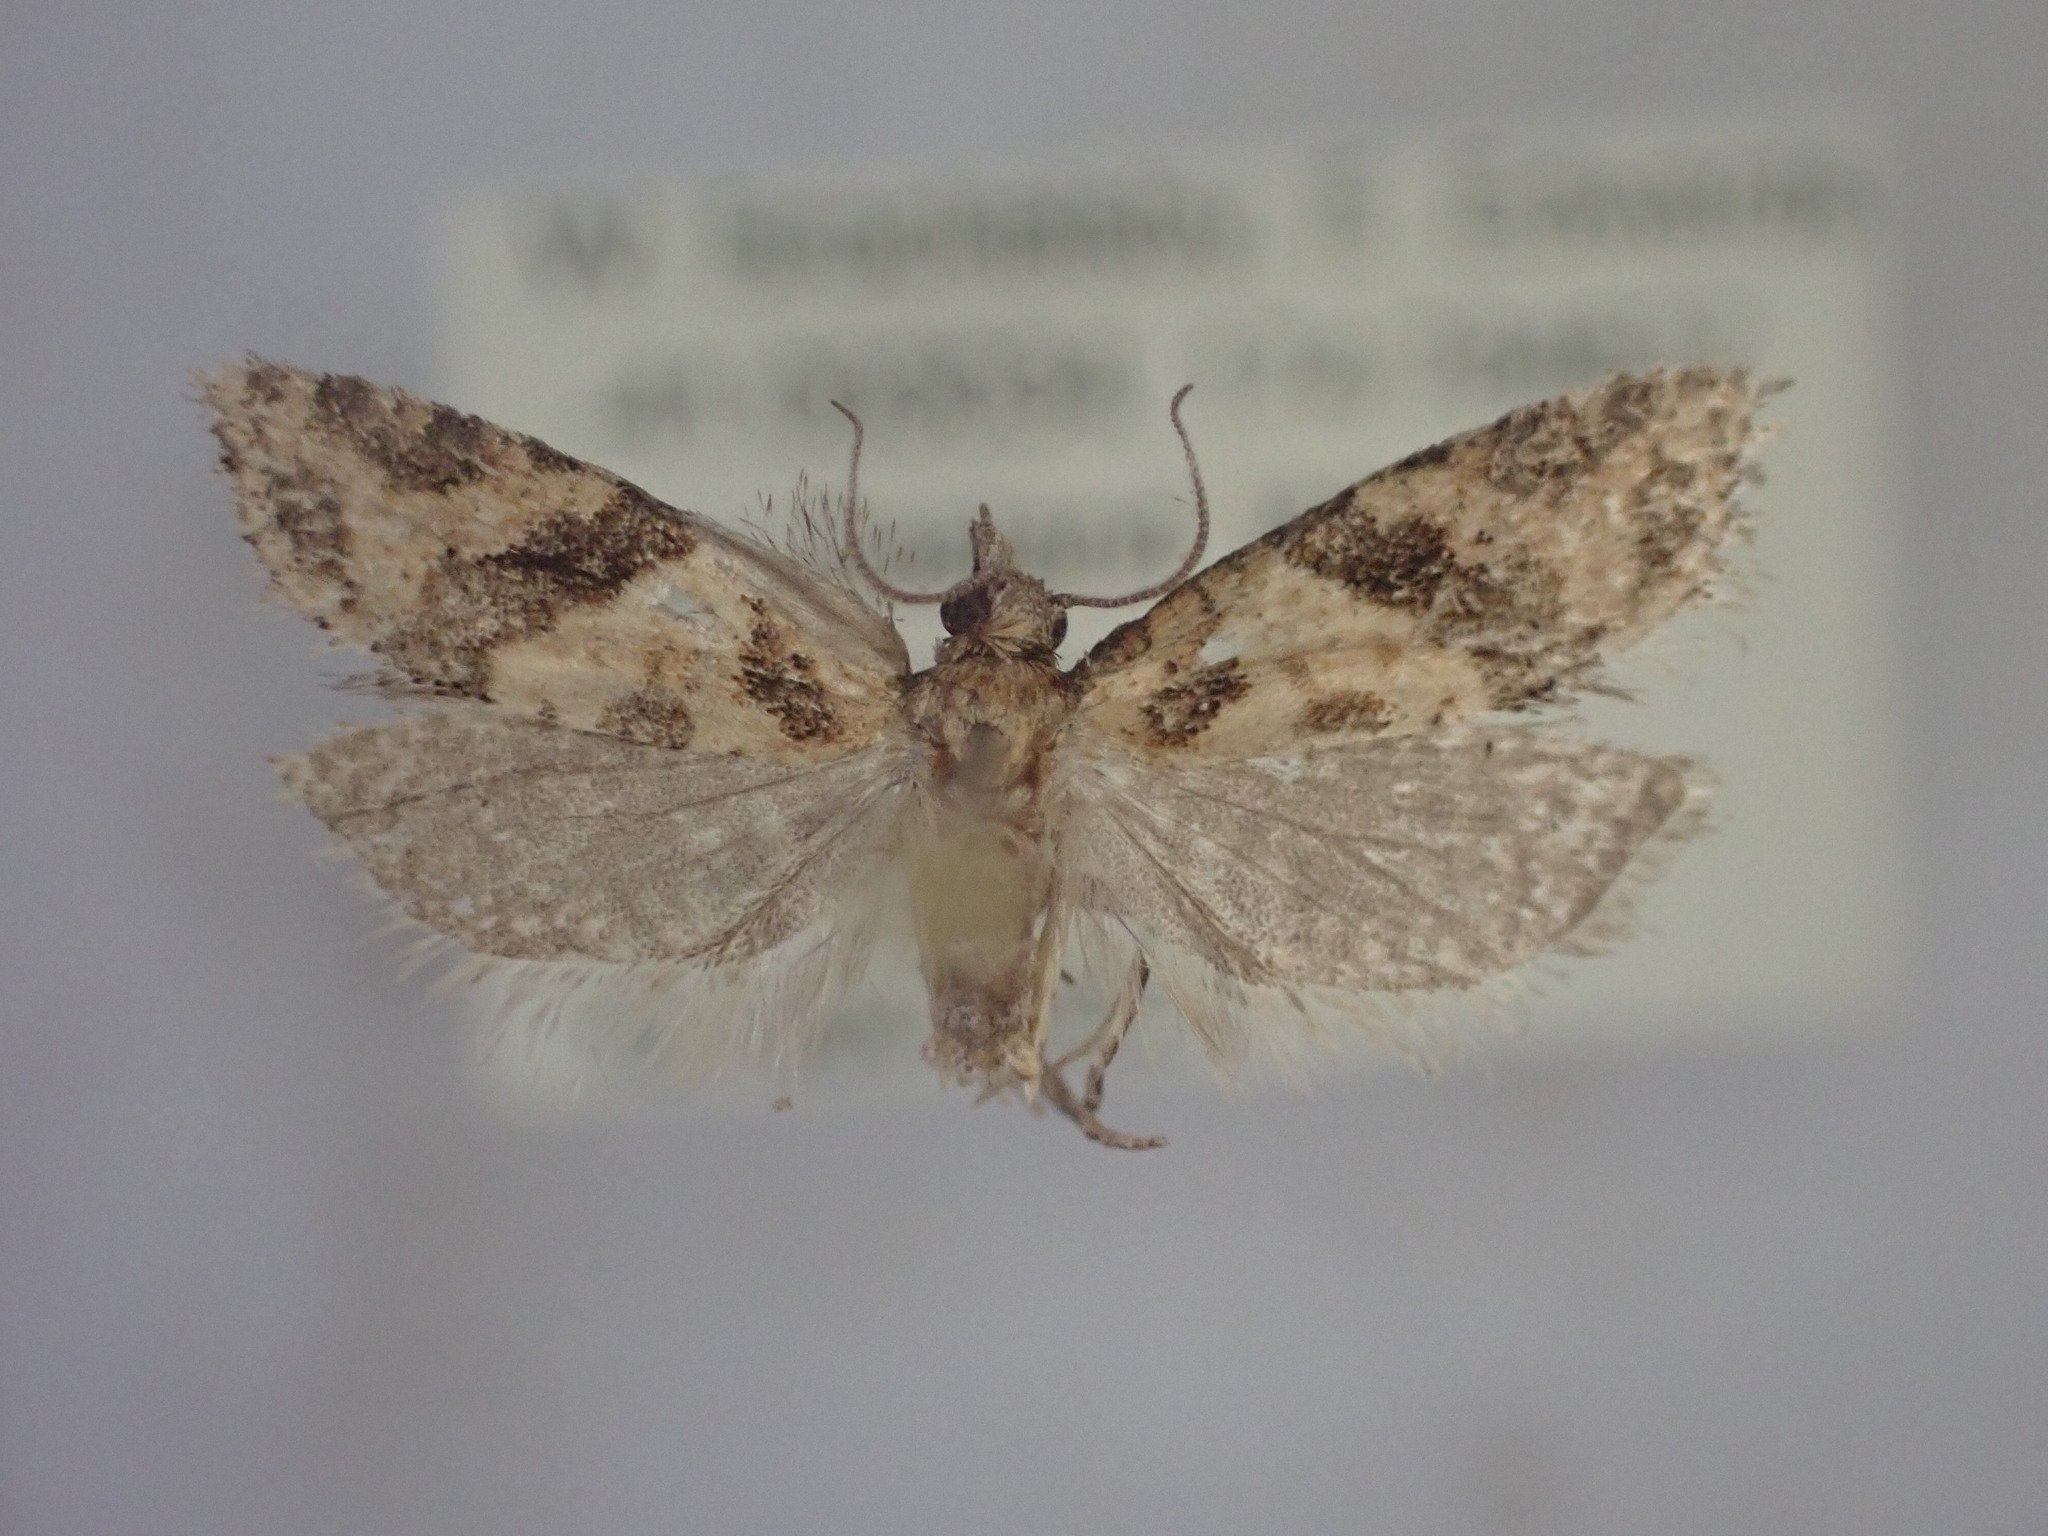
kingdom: Animalia
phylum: Arthropoda
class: Insecta
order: Lepidoptera
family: Tortricidae
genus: Capua
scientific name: Capua semiferana
